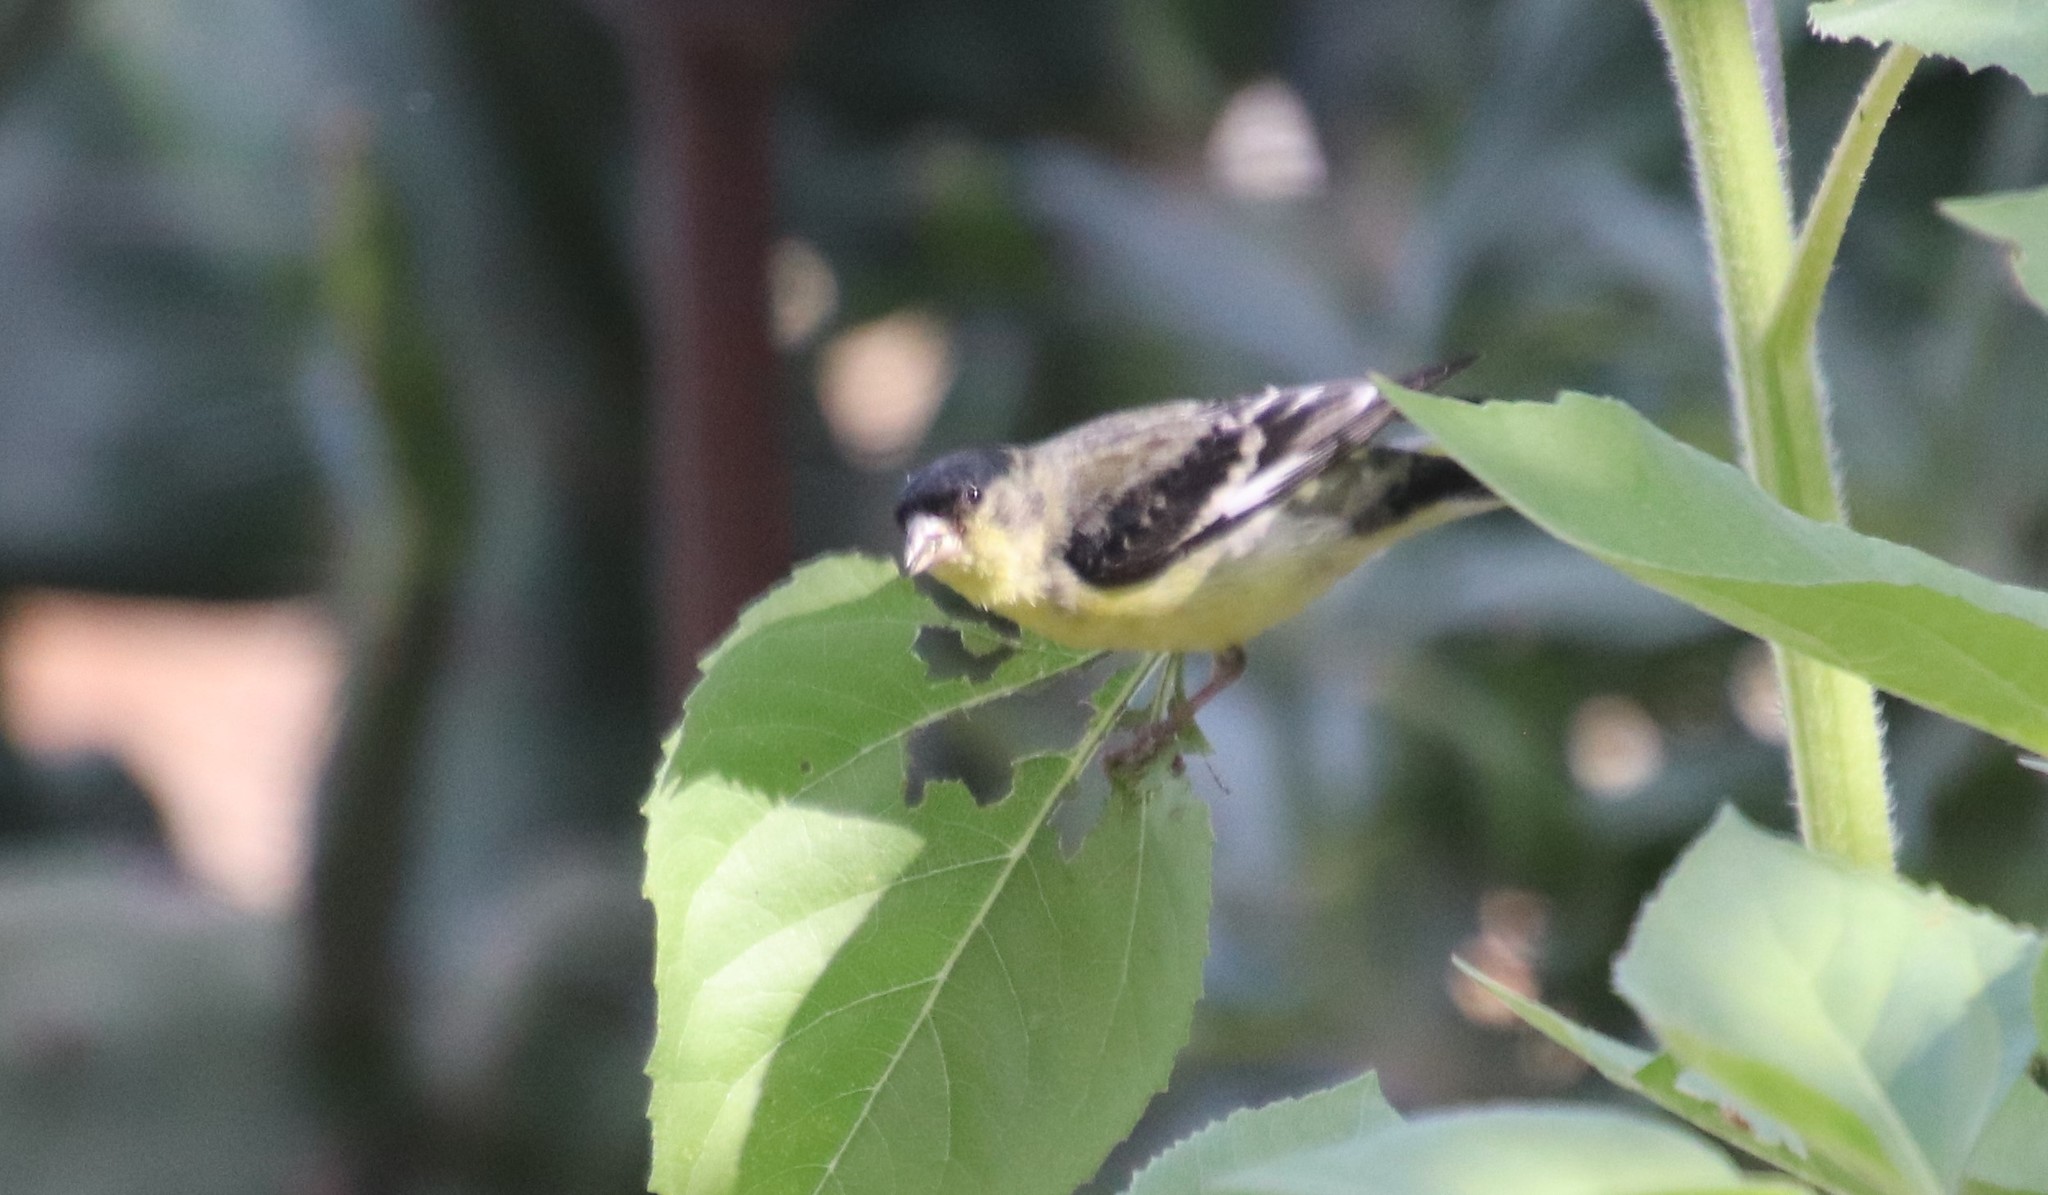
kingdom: Animalia
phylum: Chordata
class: Aves
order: Passeriformes
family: Fringillidae
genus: Spinus
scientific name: Spinus psaltria
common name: Lesser goldfinch
